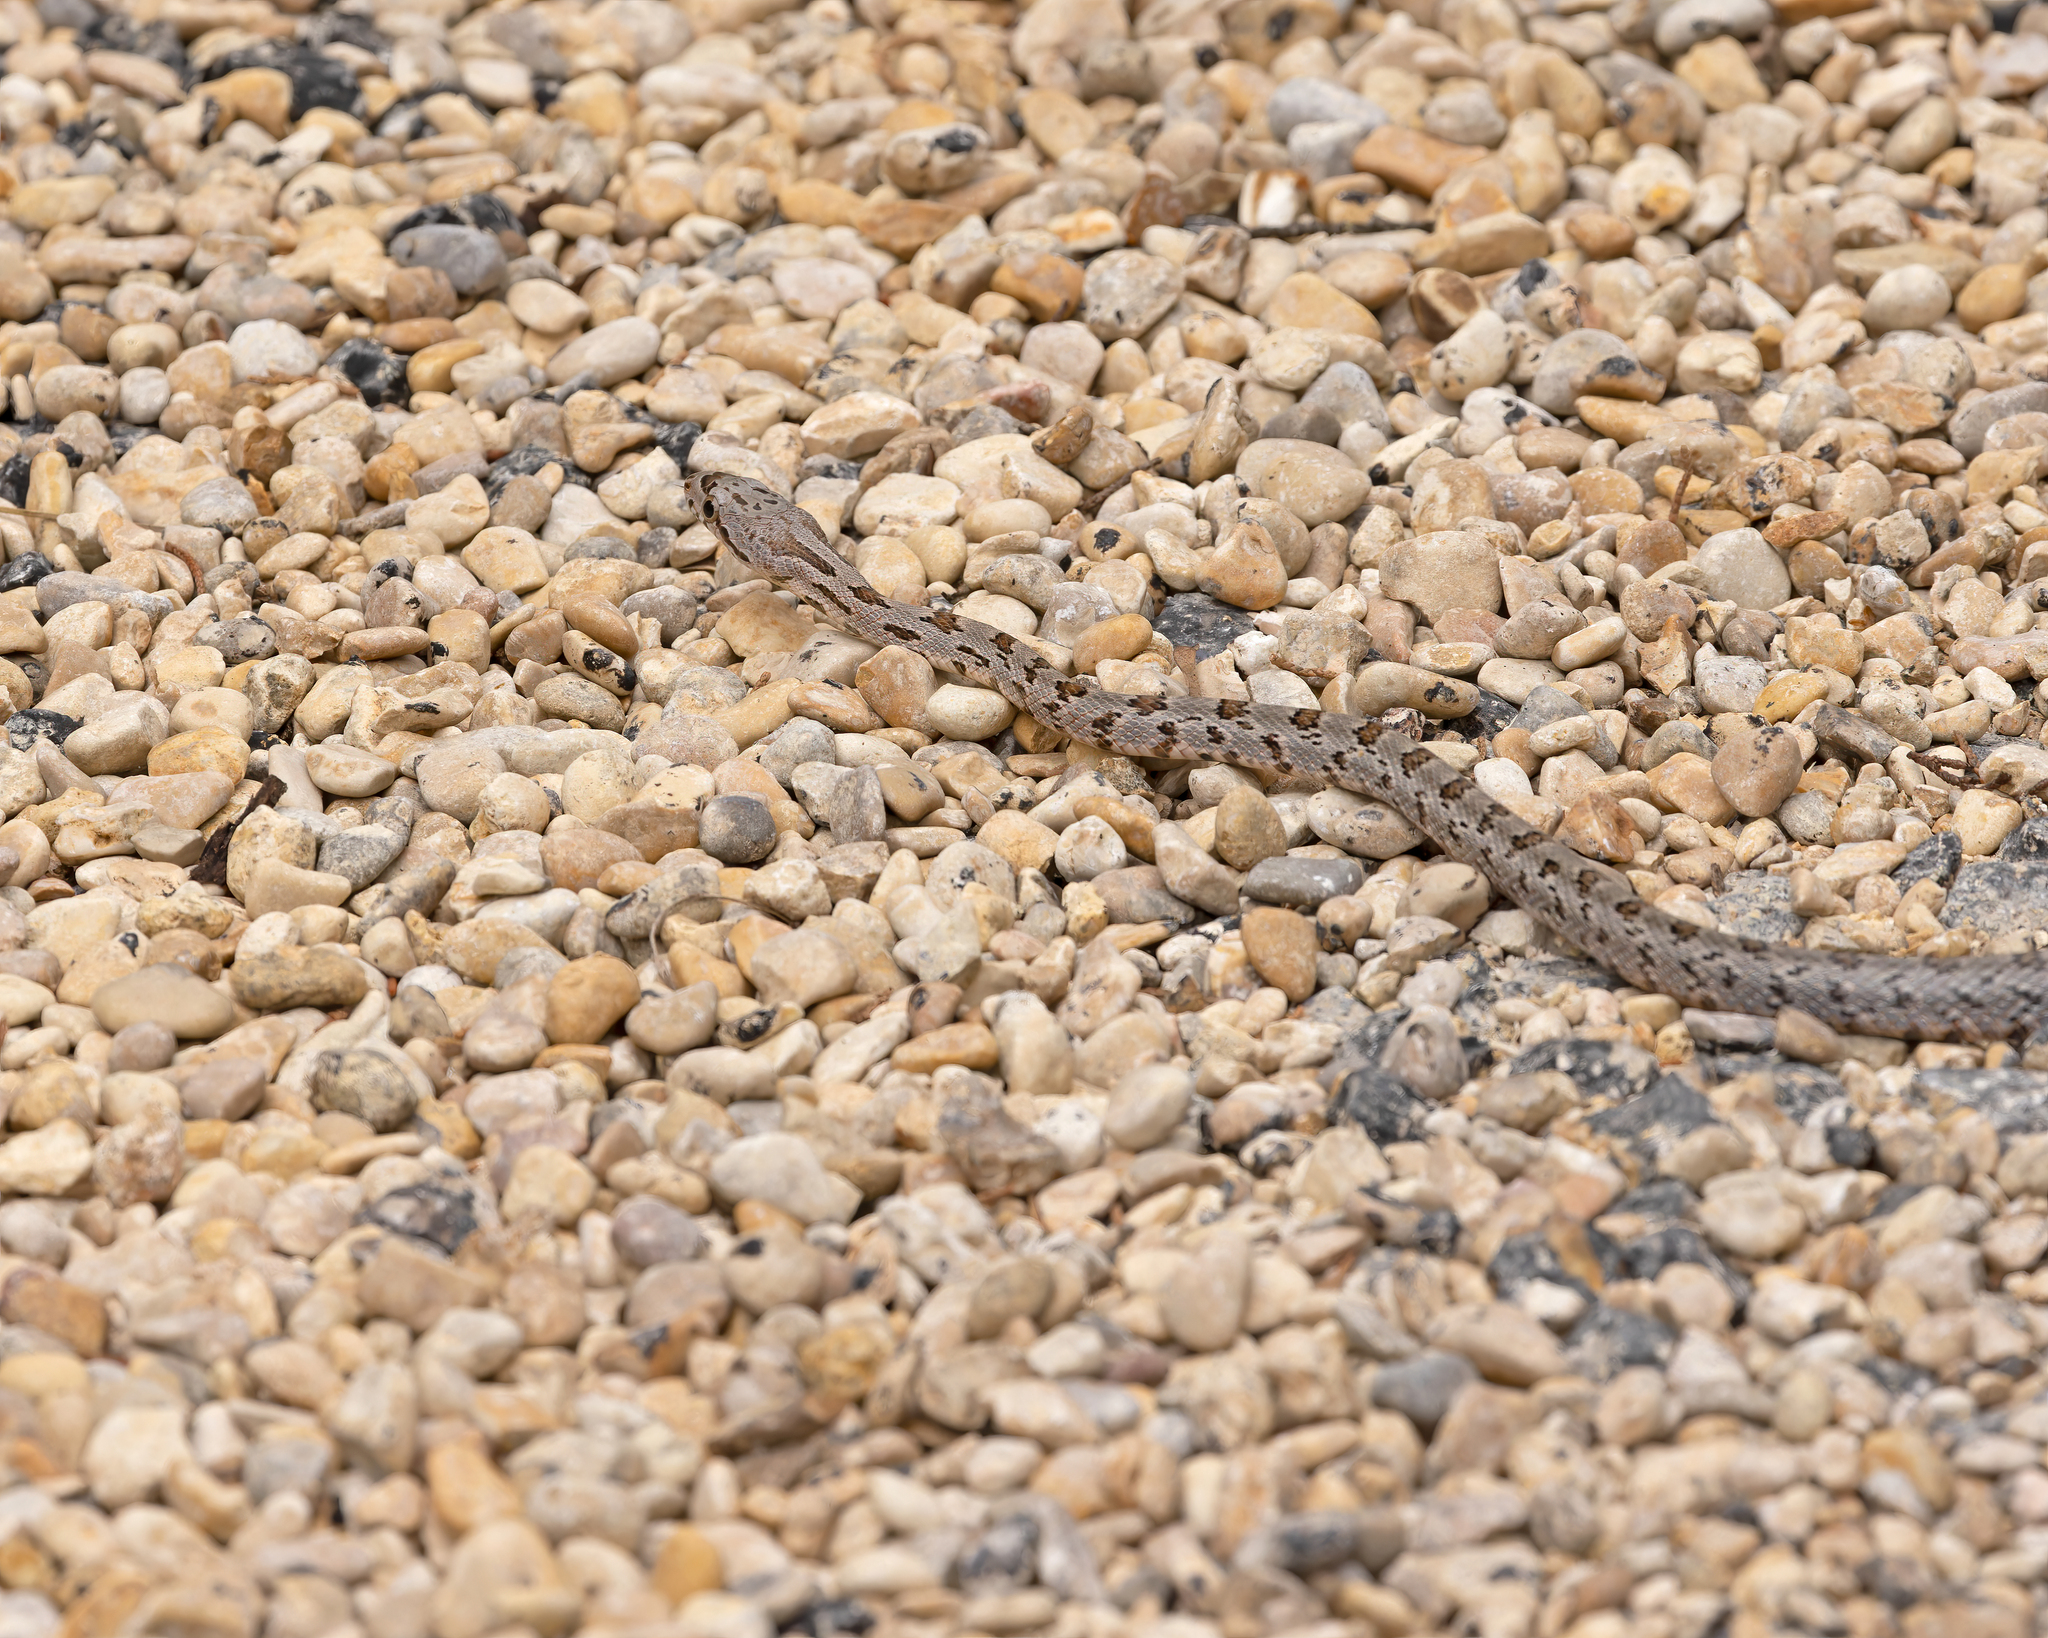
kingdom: Animalia
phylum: Chordata
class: Squamata
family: Colubridae
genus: Pantherophis
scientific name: Pantherophis bairdi
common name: Baird's rat snake
